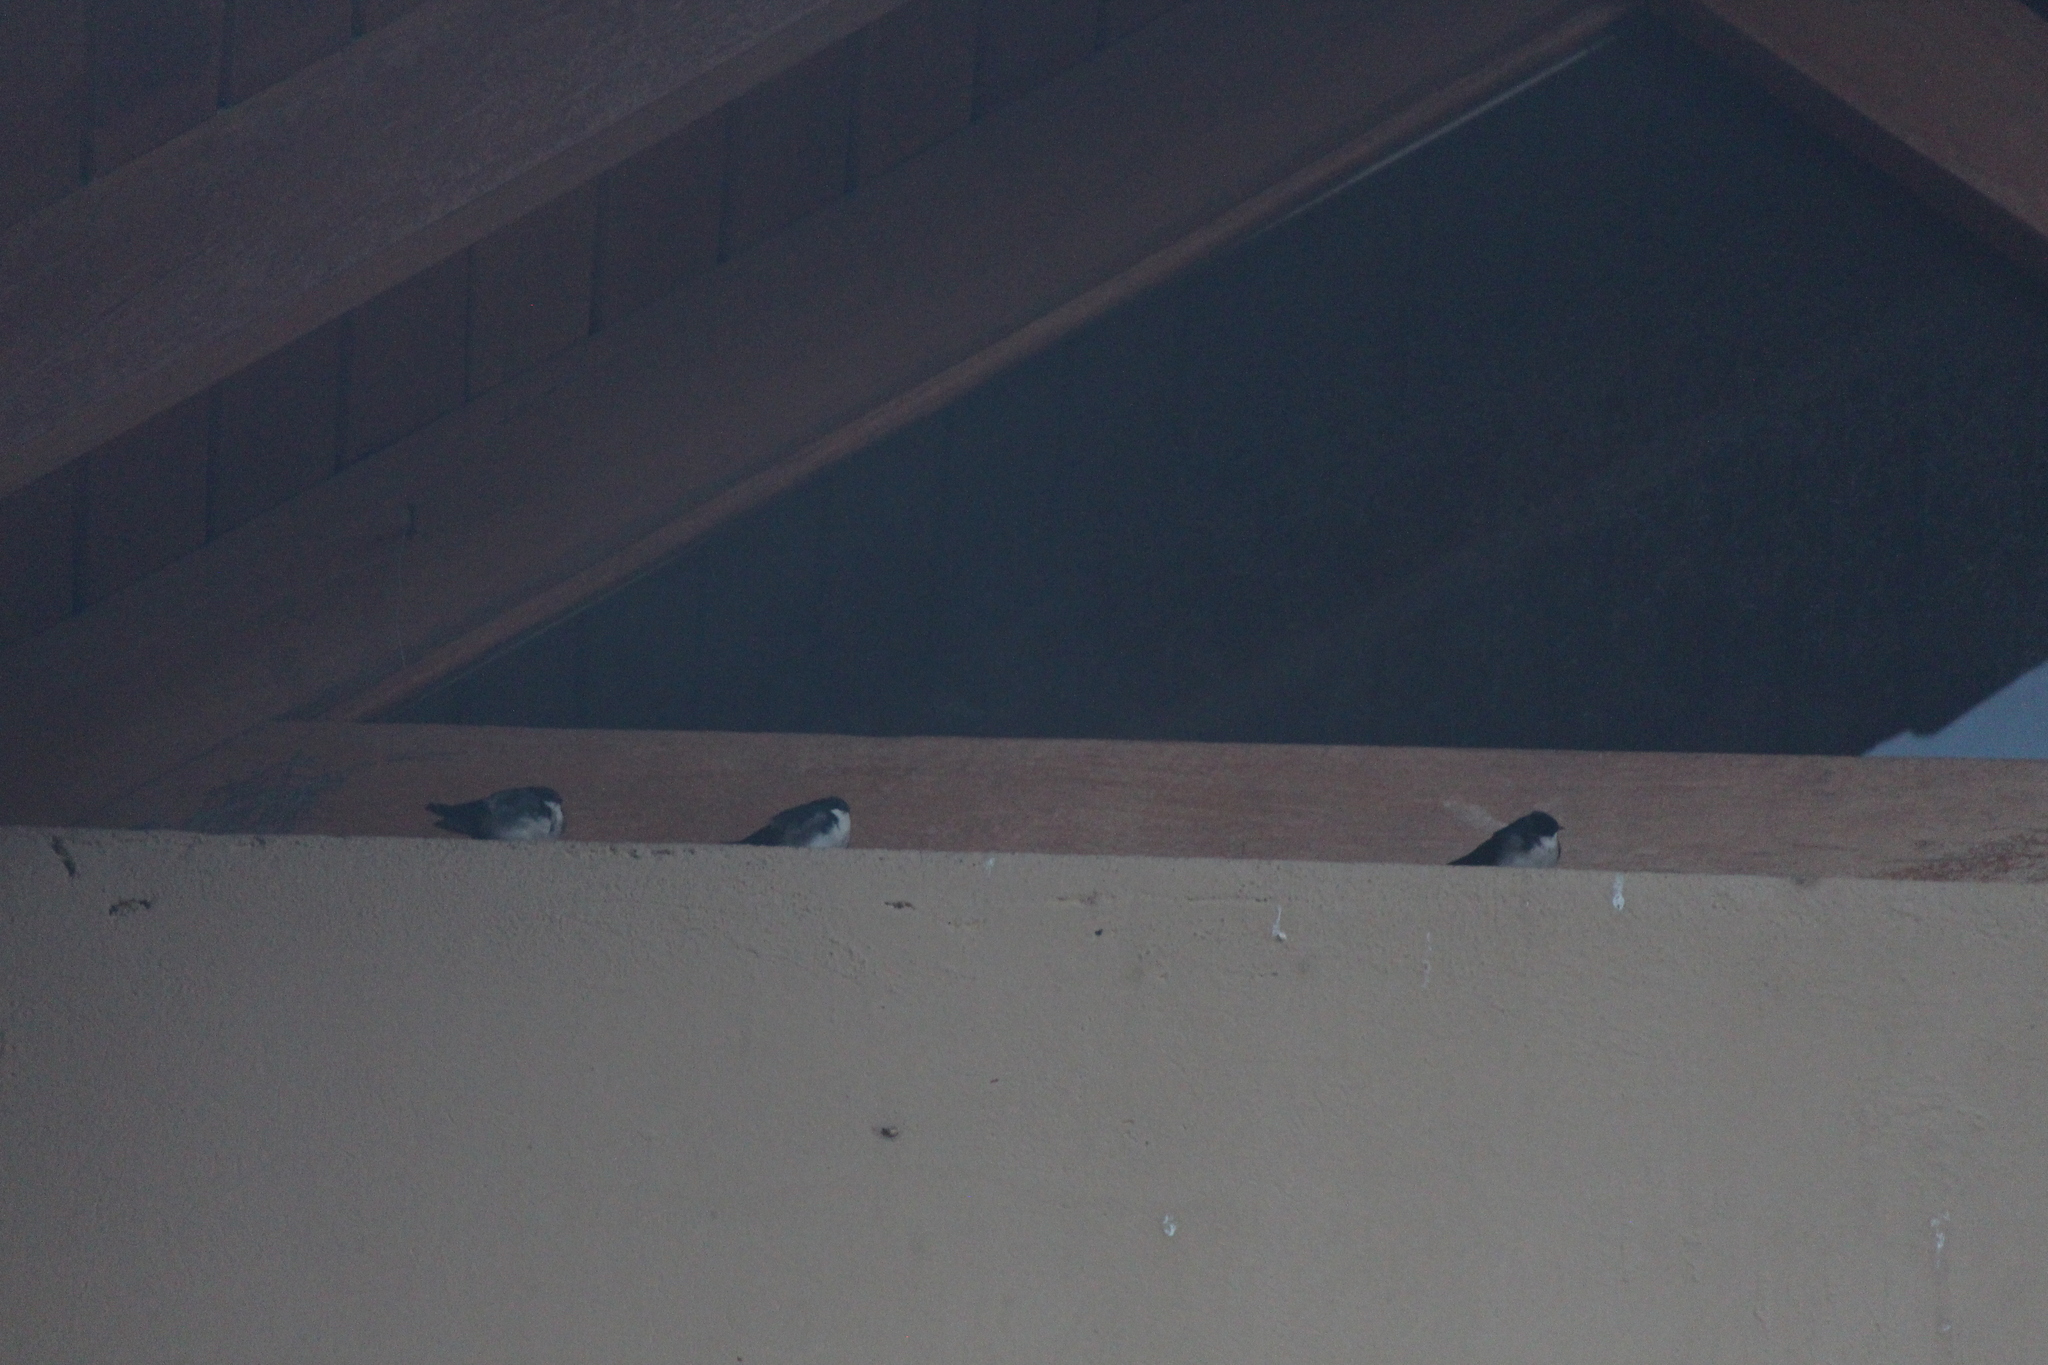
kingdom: Animalia
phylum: Chordata
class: Aves
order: Passeriformes
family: Hirundinidae
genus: Notiochelidon
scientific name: Notiochelidon cyanoleuca
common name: Blue-and-white swallow
